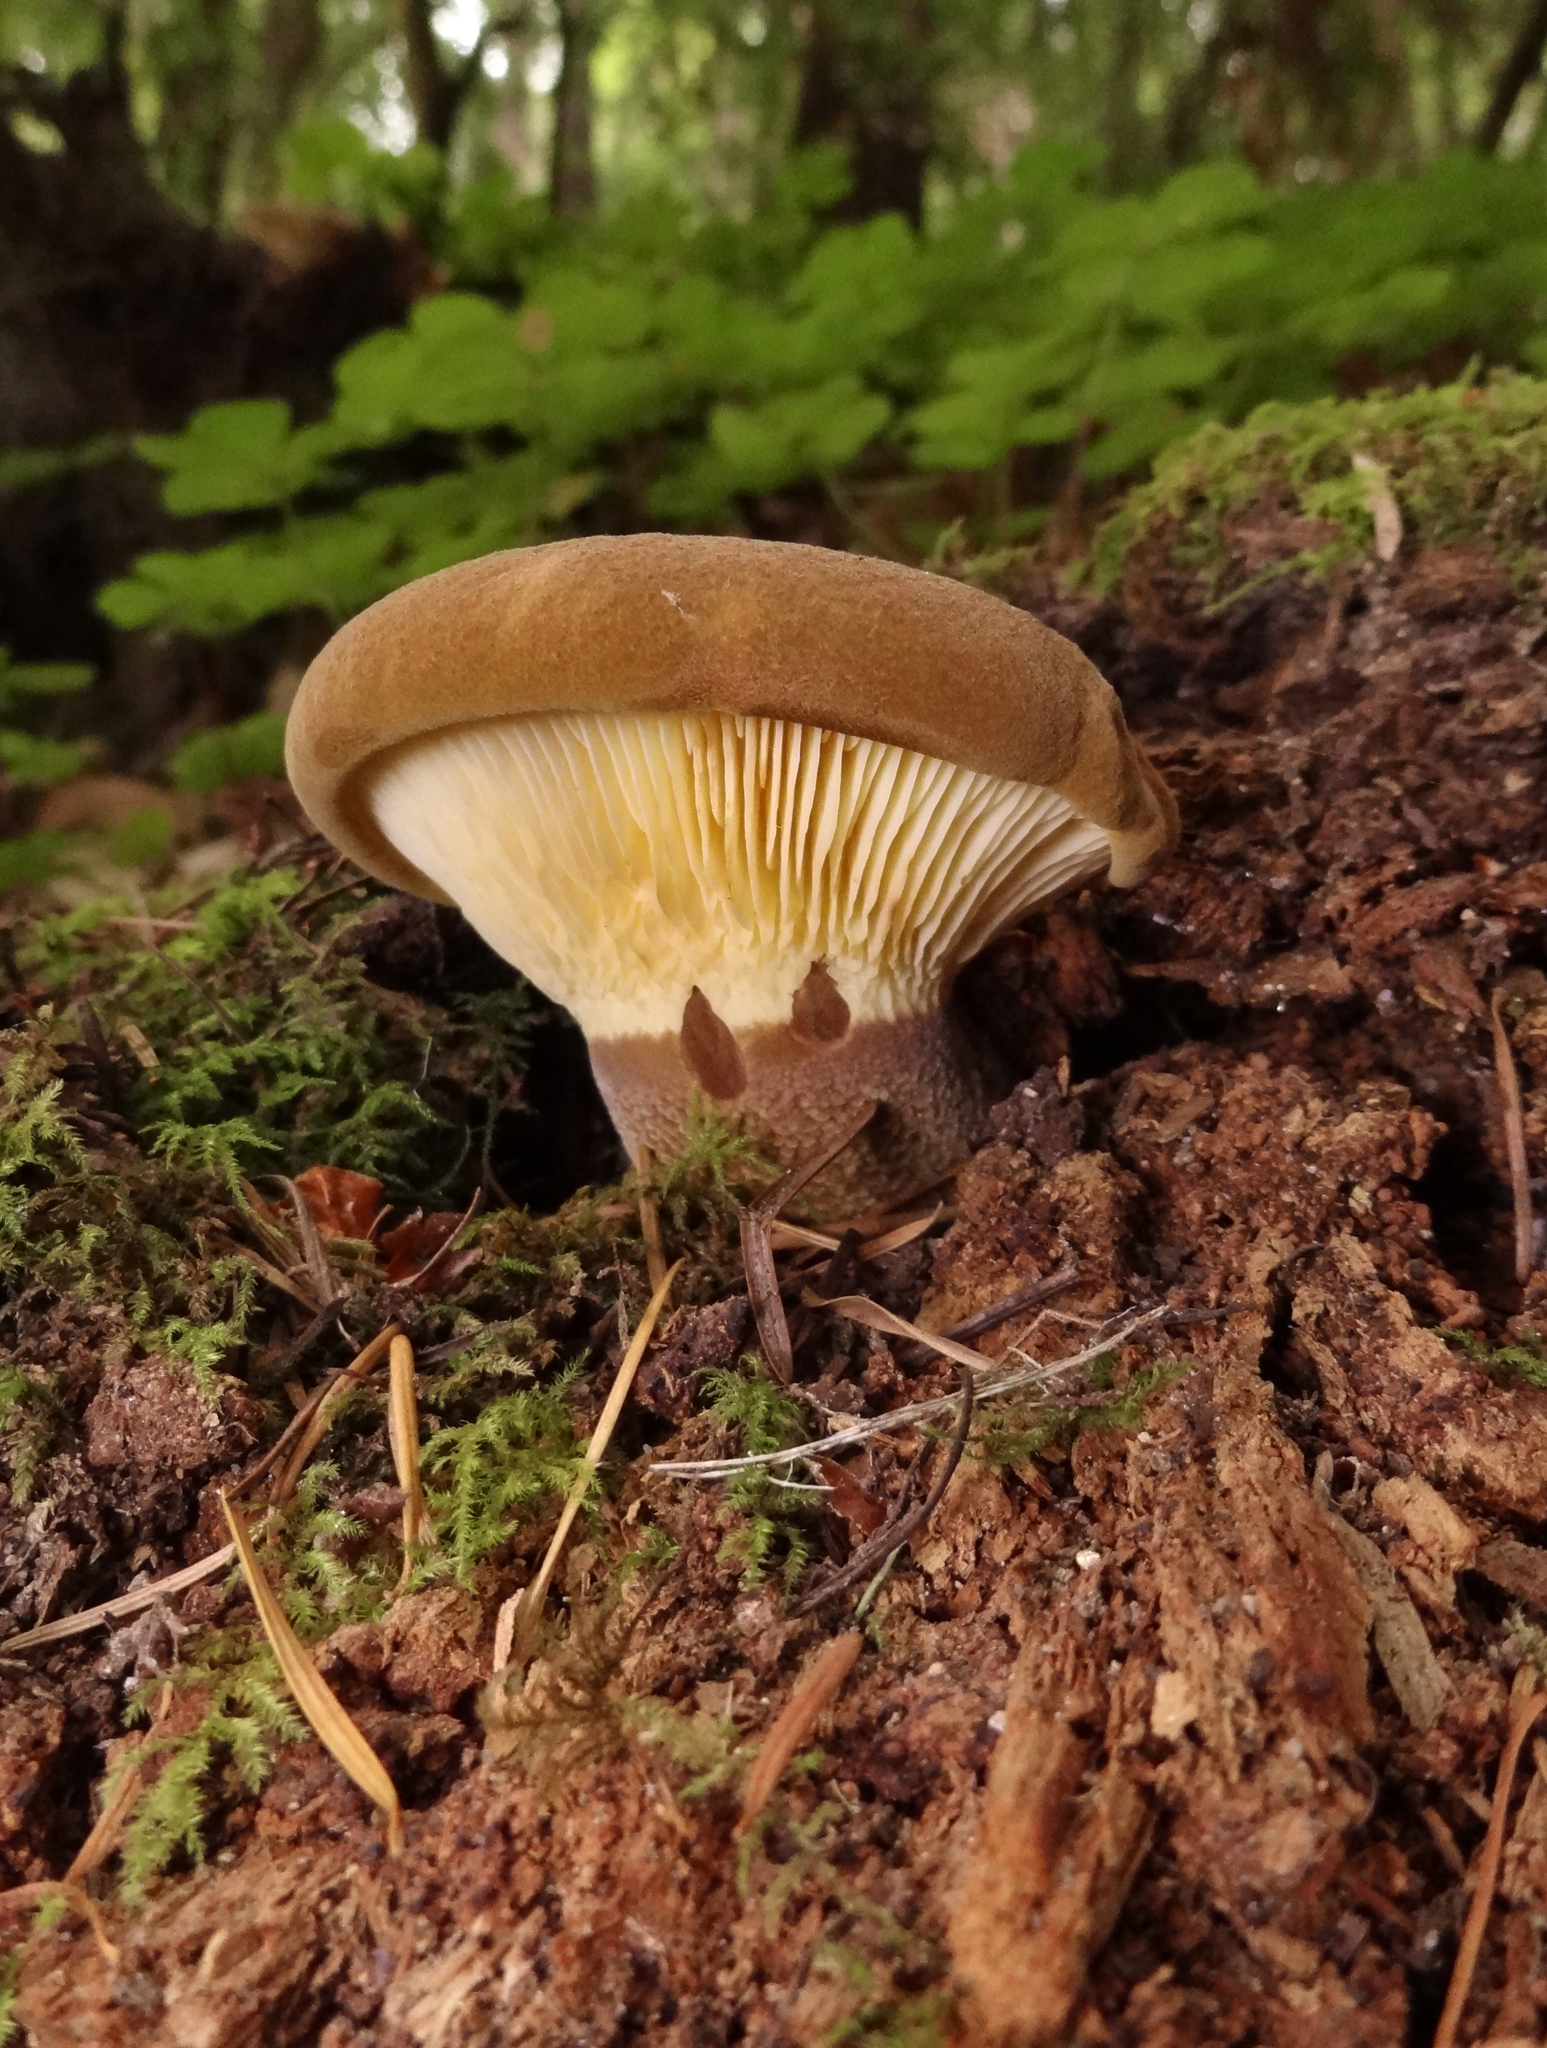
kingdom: Fungi
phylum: Basidiomycota
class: Agaricomycetes
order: Boletales
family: Tapinellaceae
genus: Tapinella
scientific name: Tapinella atrotomentosa
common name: Velvet rollrim
